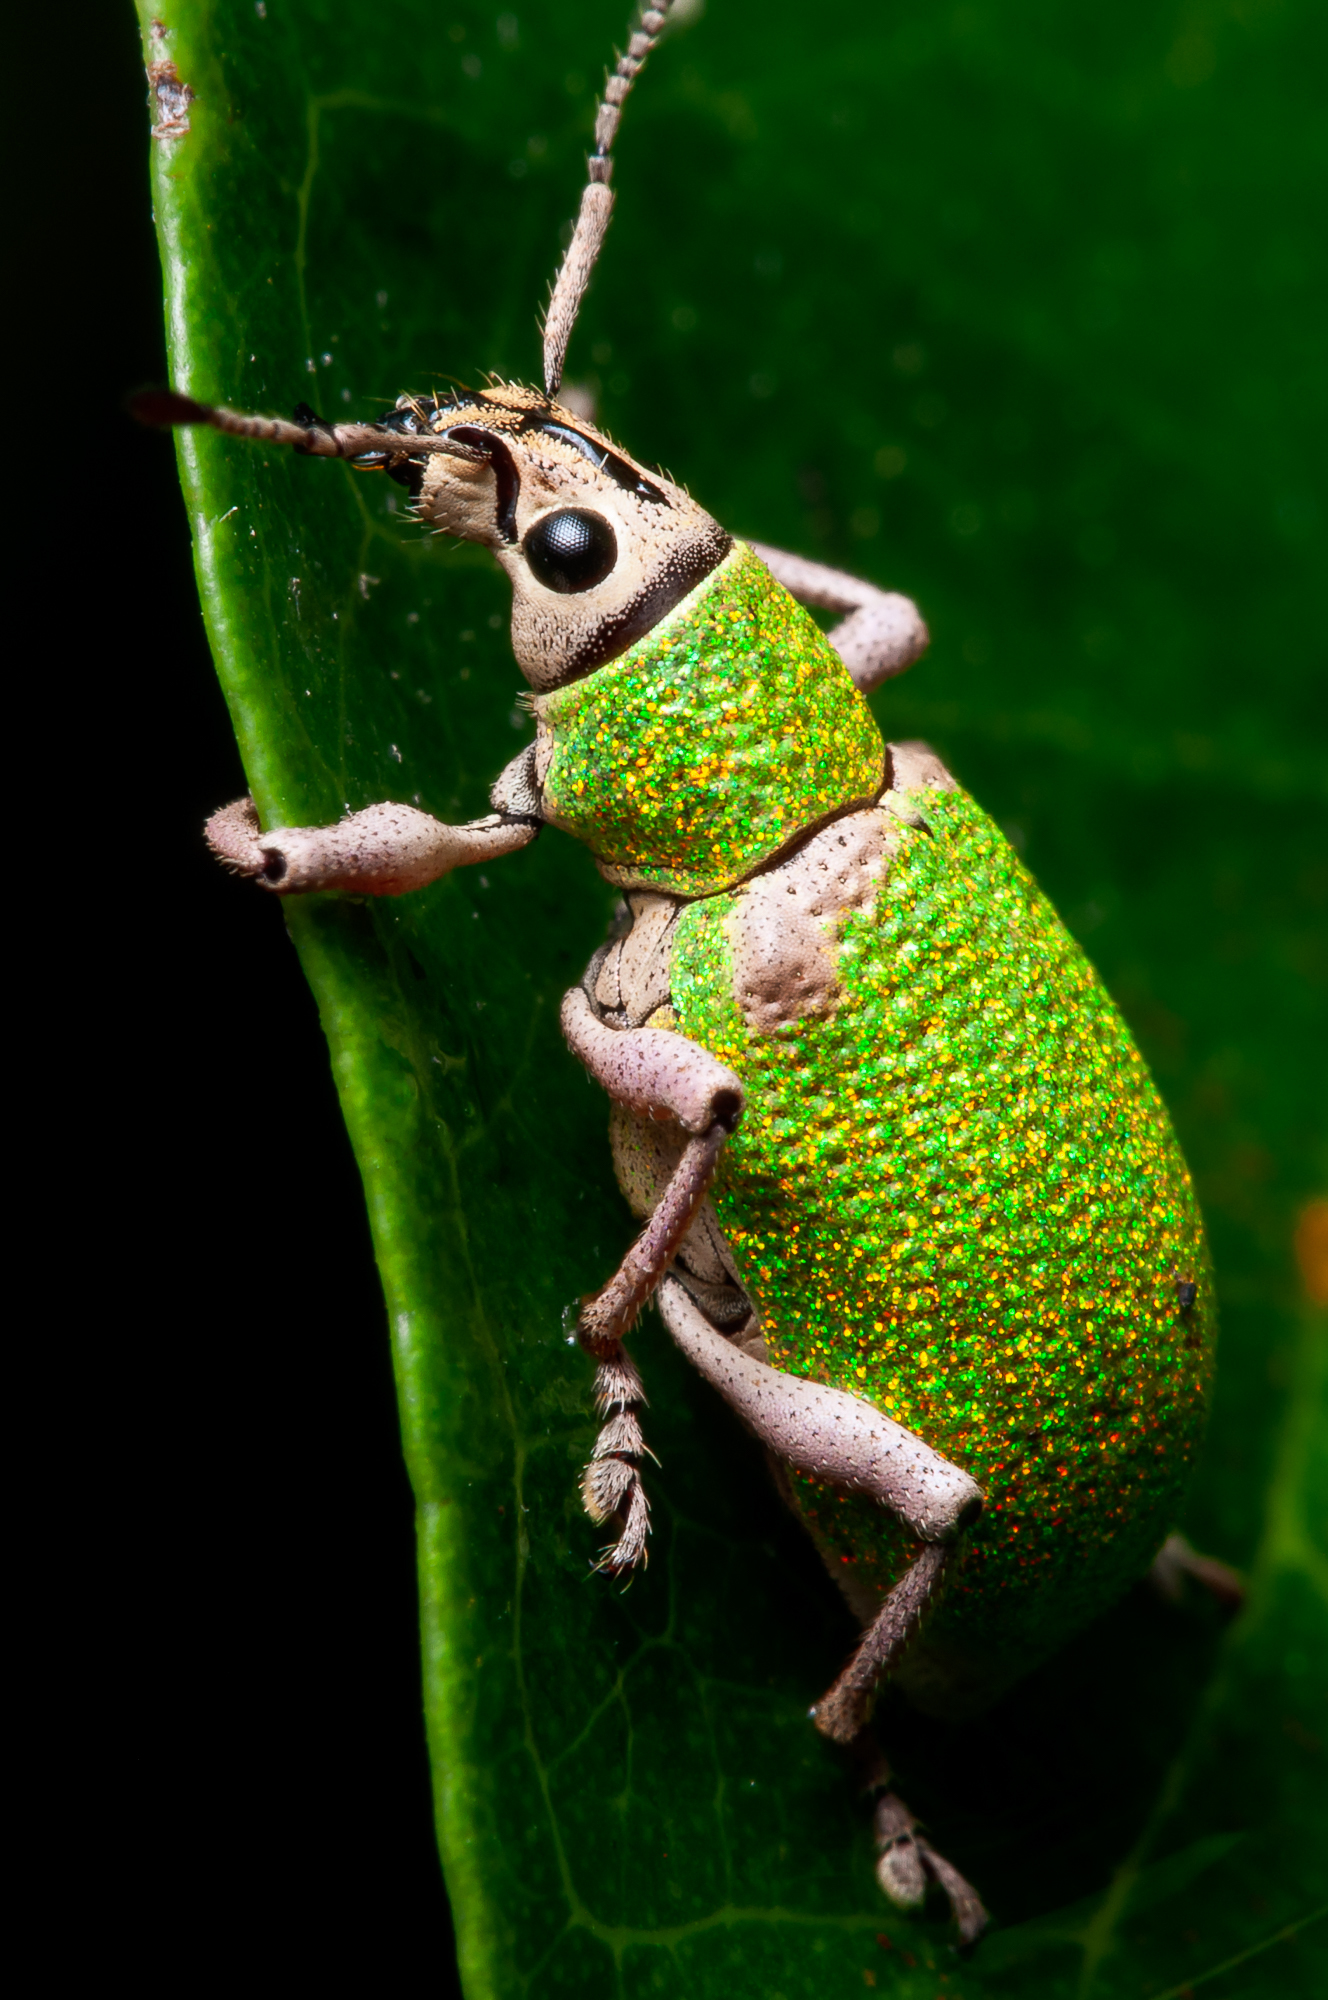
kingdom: Animalia
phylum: Arthropoda
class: Insecta
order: Coleoptera
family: Curculionidae
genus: Exophthalmus
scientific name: Exophthalmus carneipes
